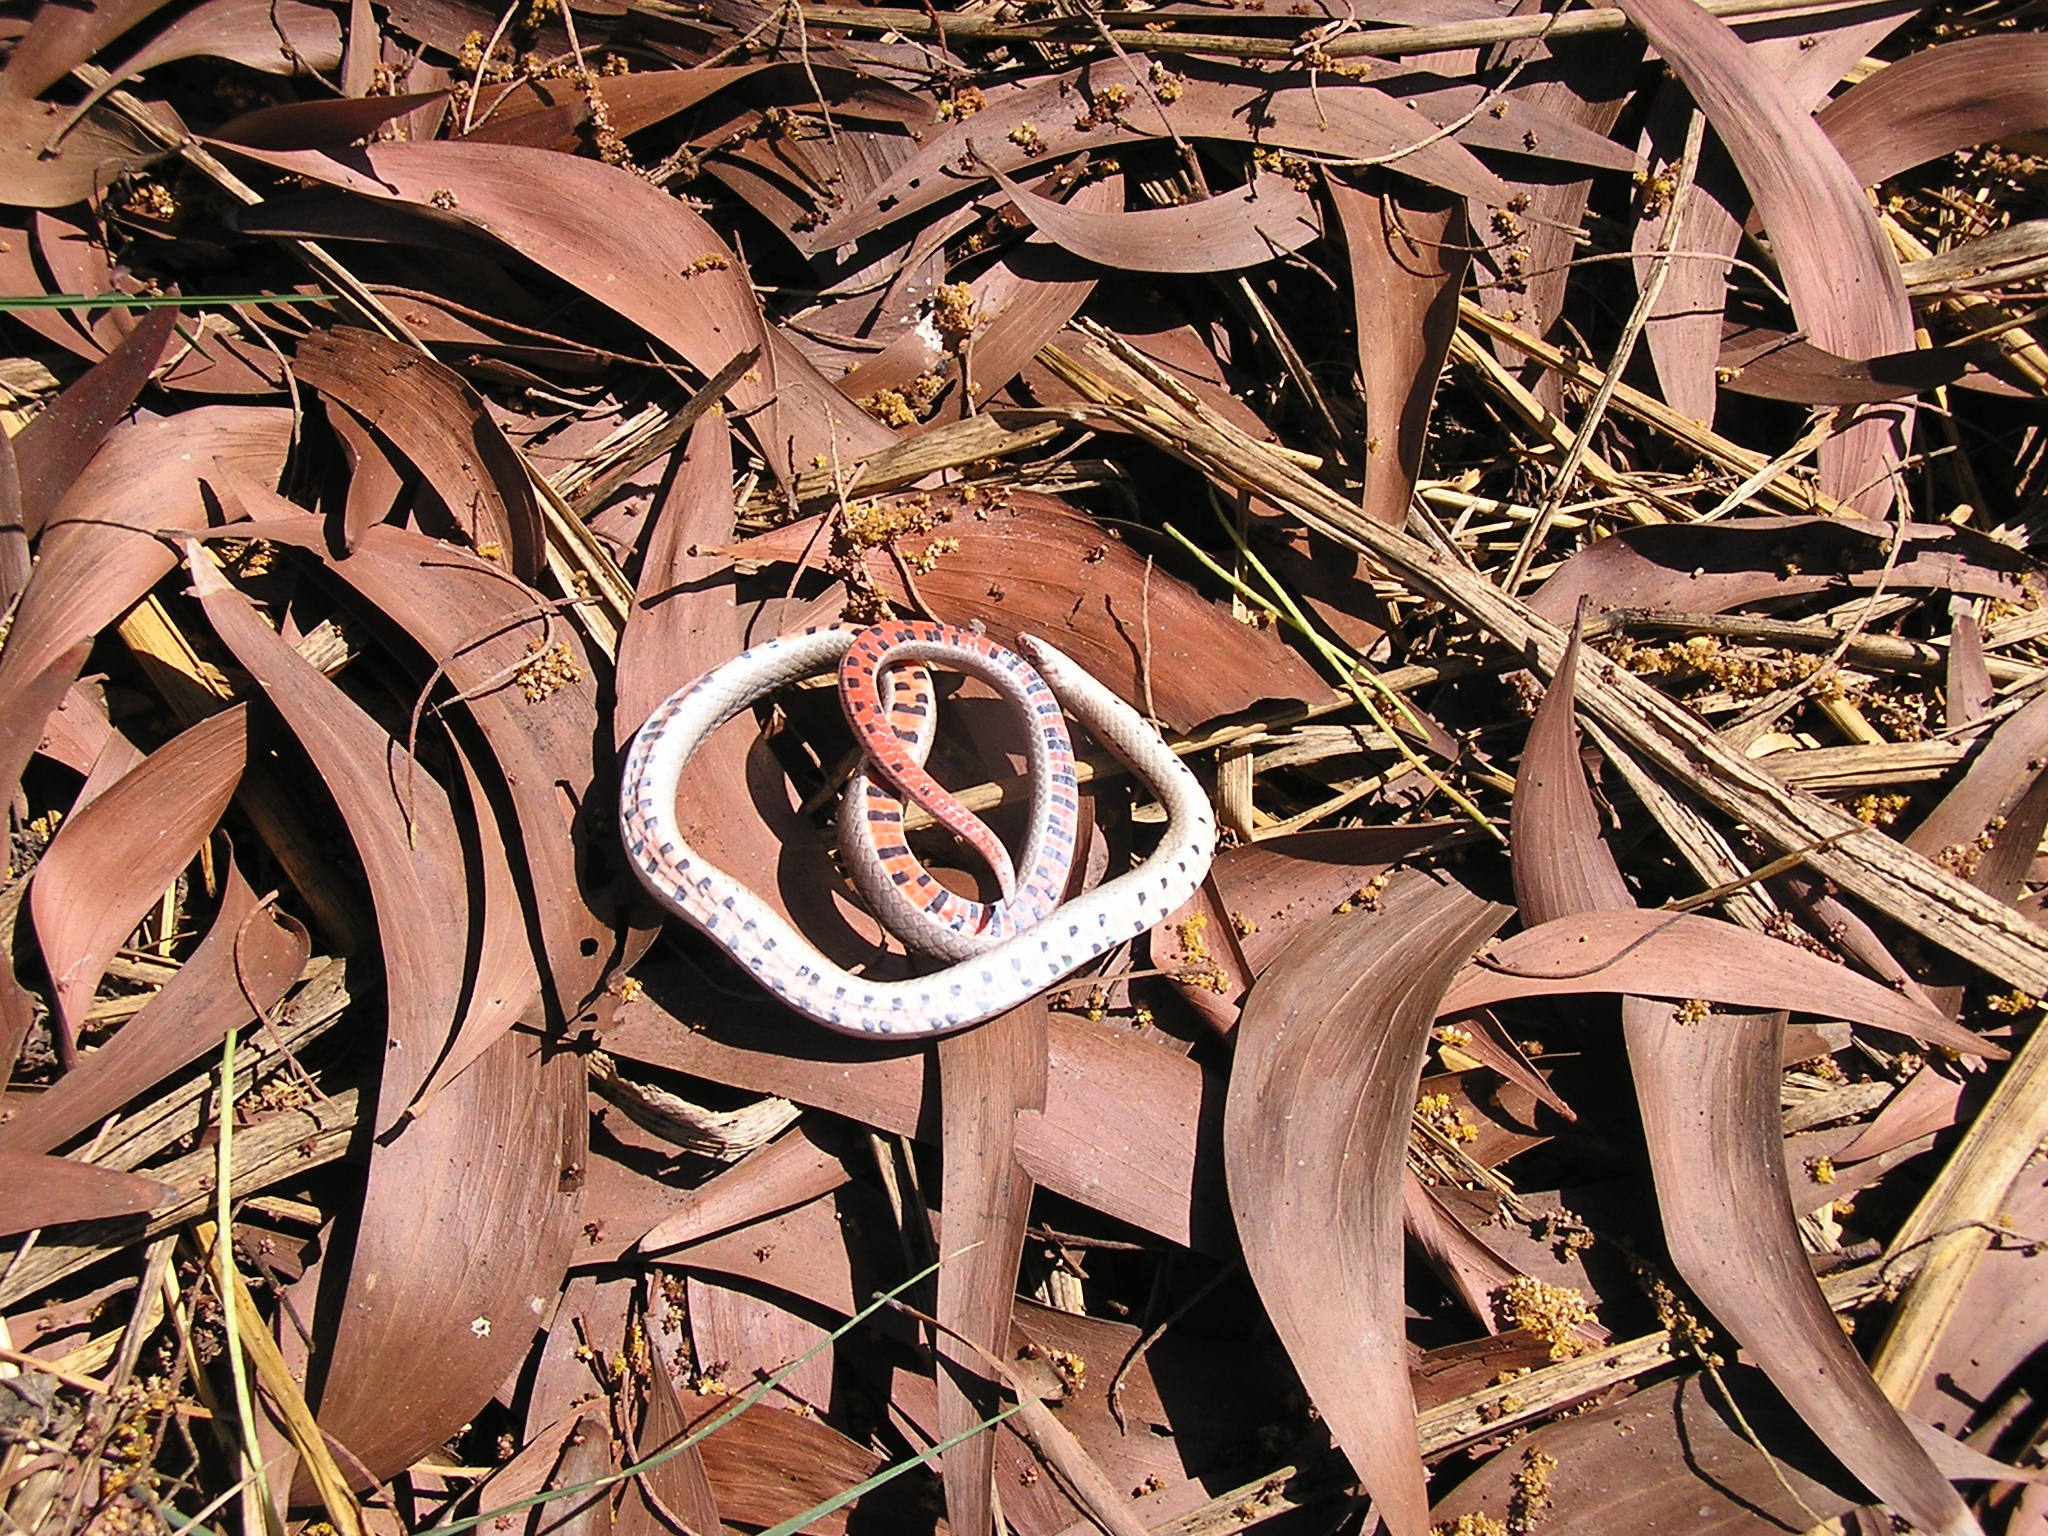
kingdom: Animalia
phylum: Chordata
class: Squamata
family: Colubridae
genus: Oligodon
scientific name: Oligodon taeniatus
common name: Striped kukri snake
